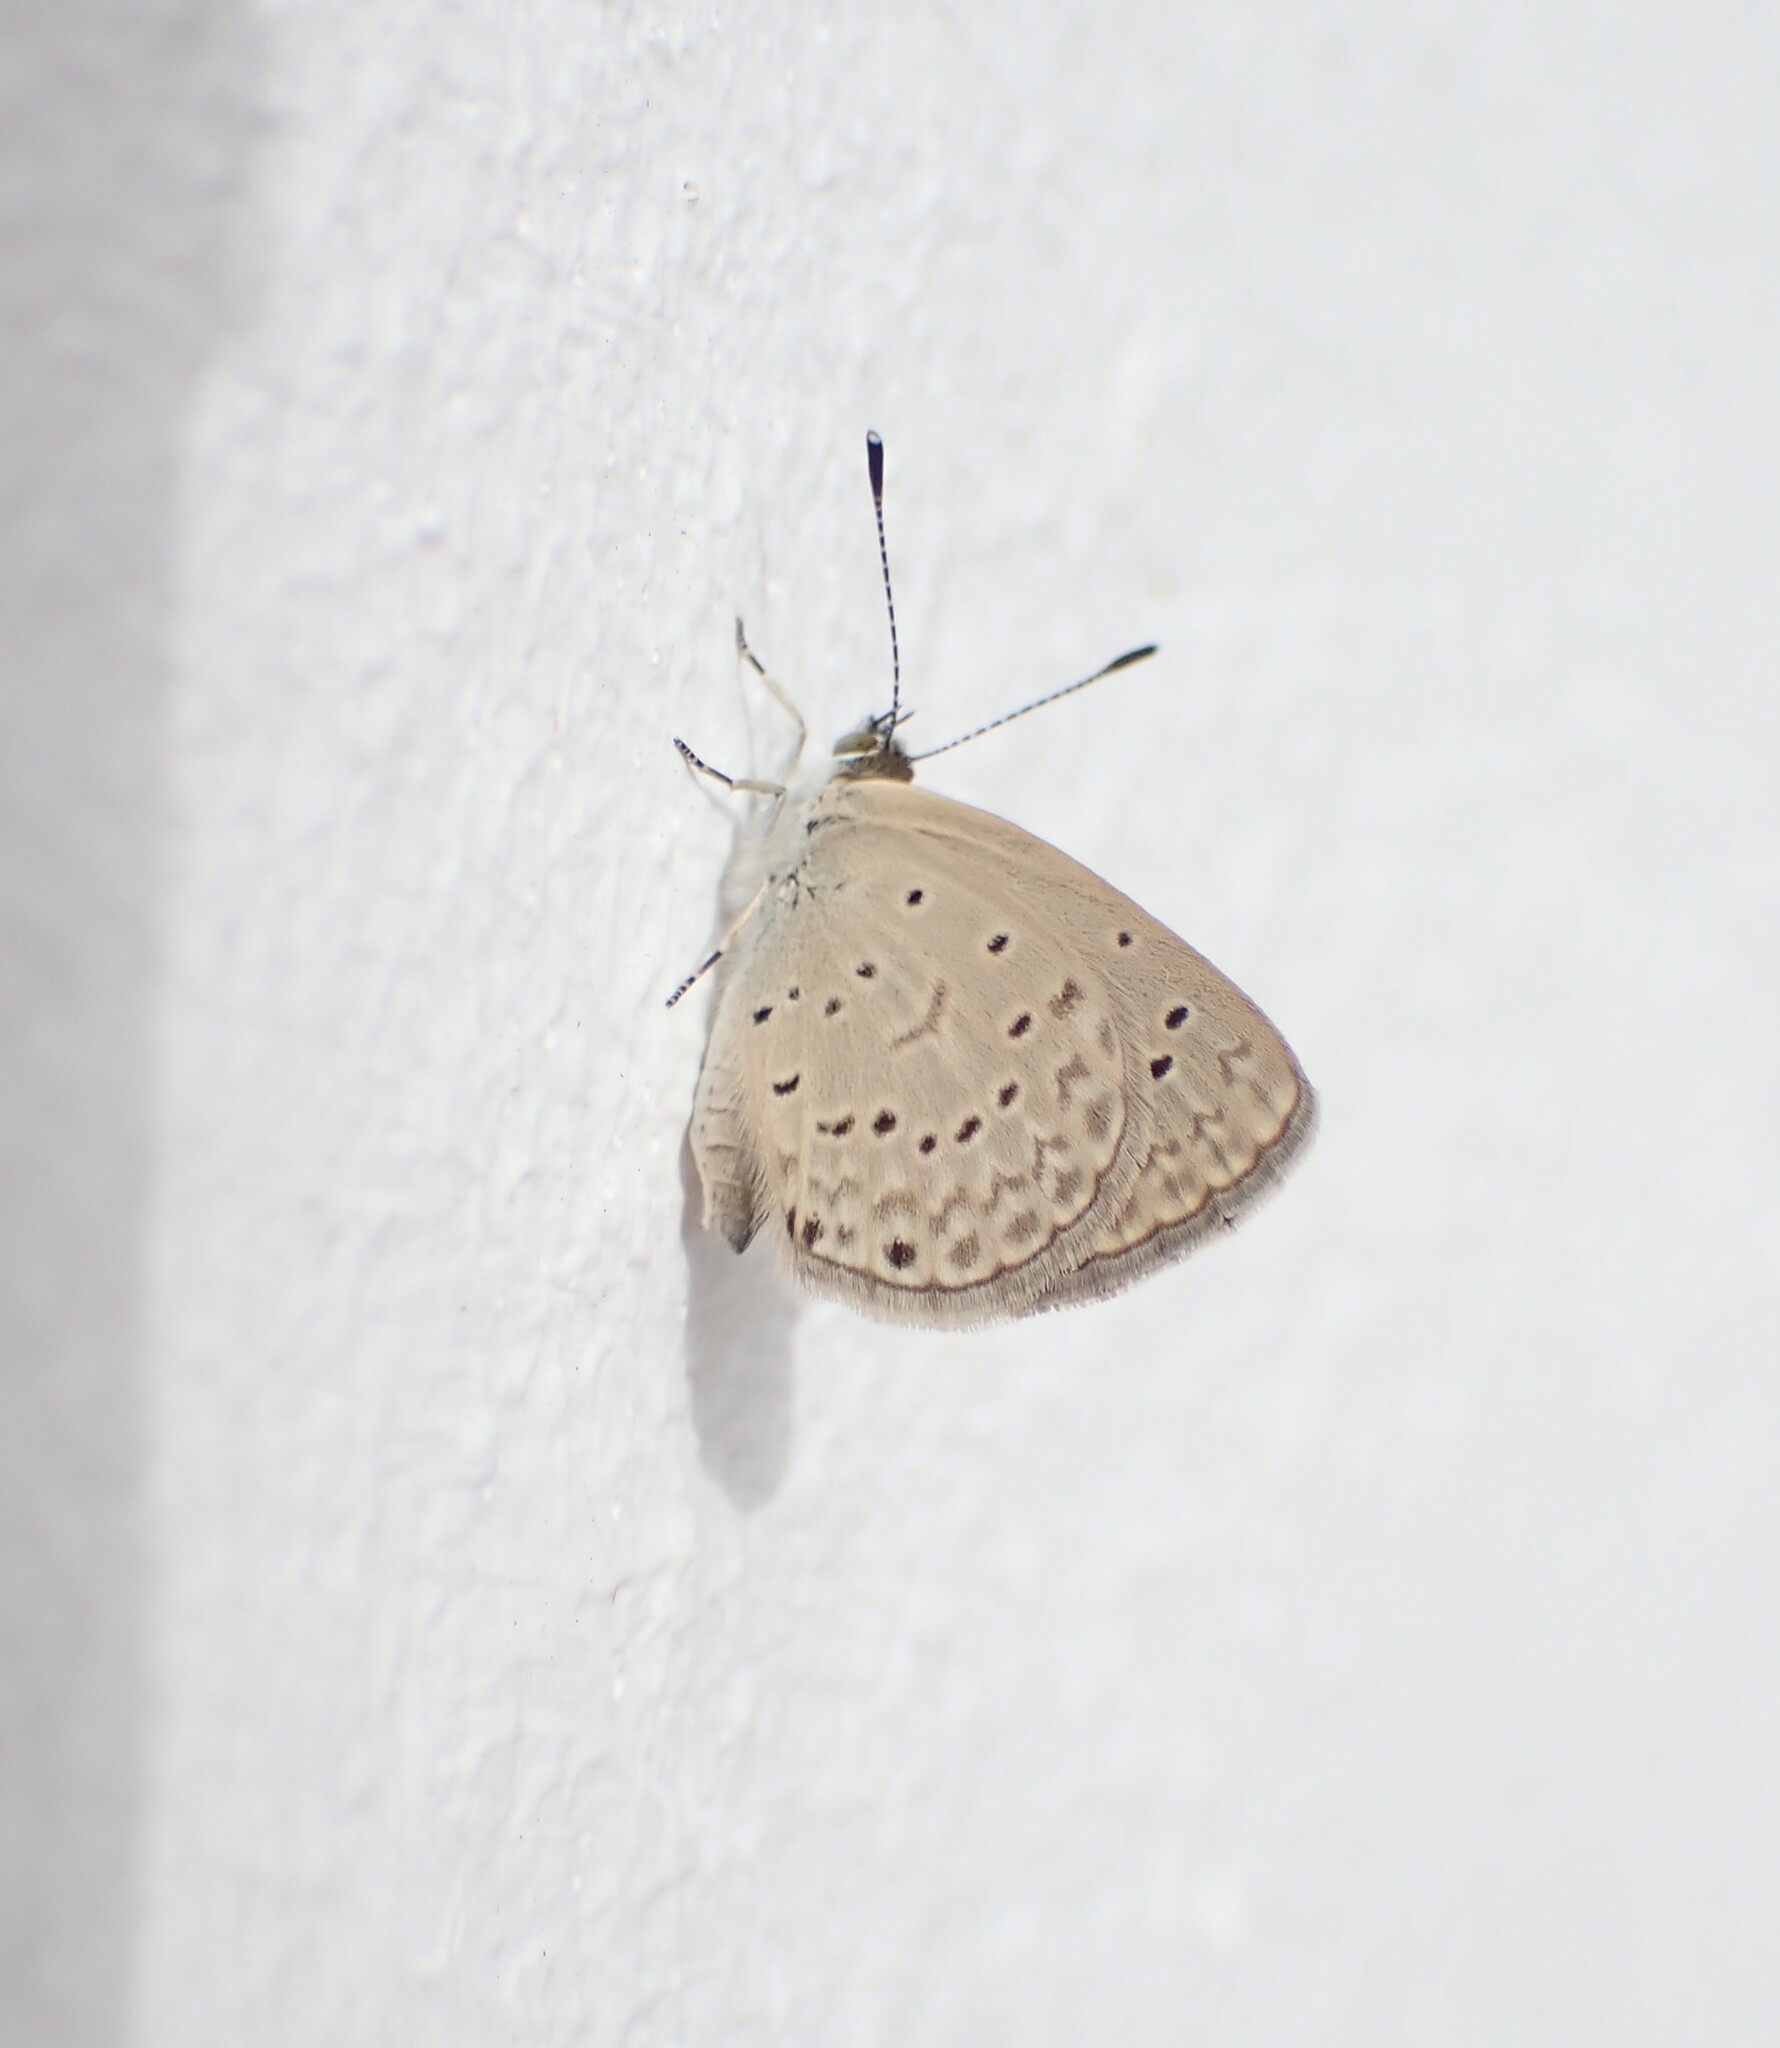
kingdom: Animalia
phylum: Arthropoda
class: Insecta
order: Lepidoptera
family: Lycaenidae
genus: Zizeeria
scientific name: Zizeeria knysna
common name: African grass blue
